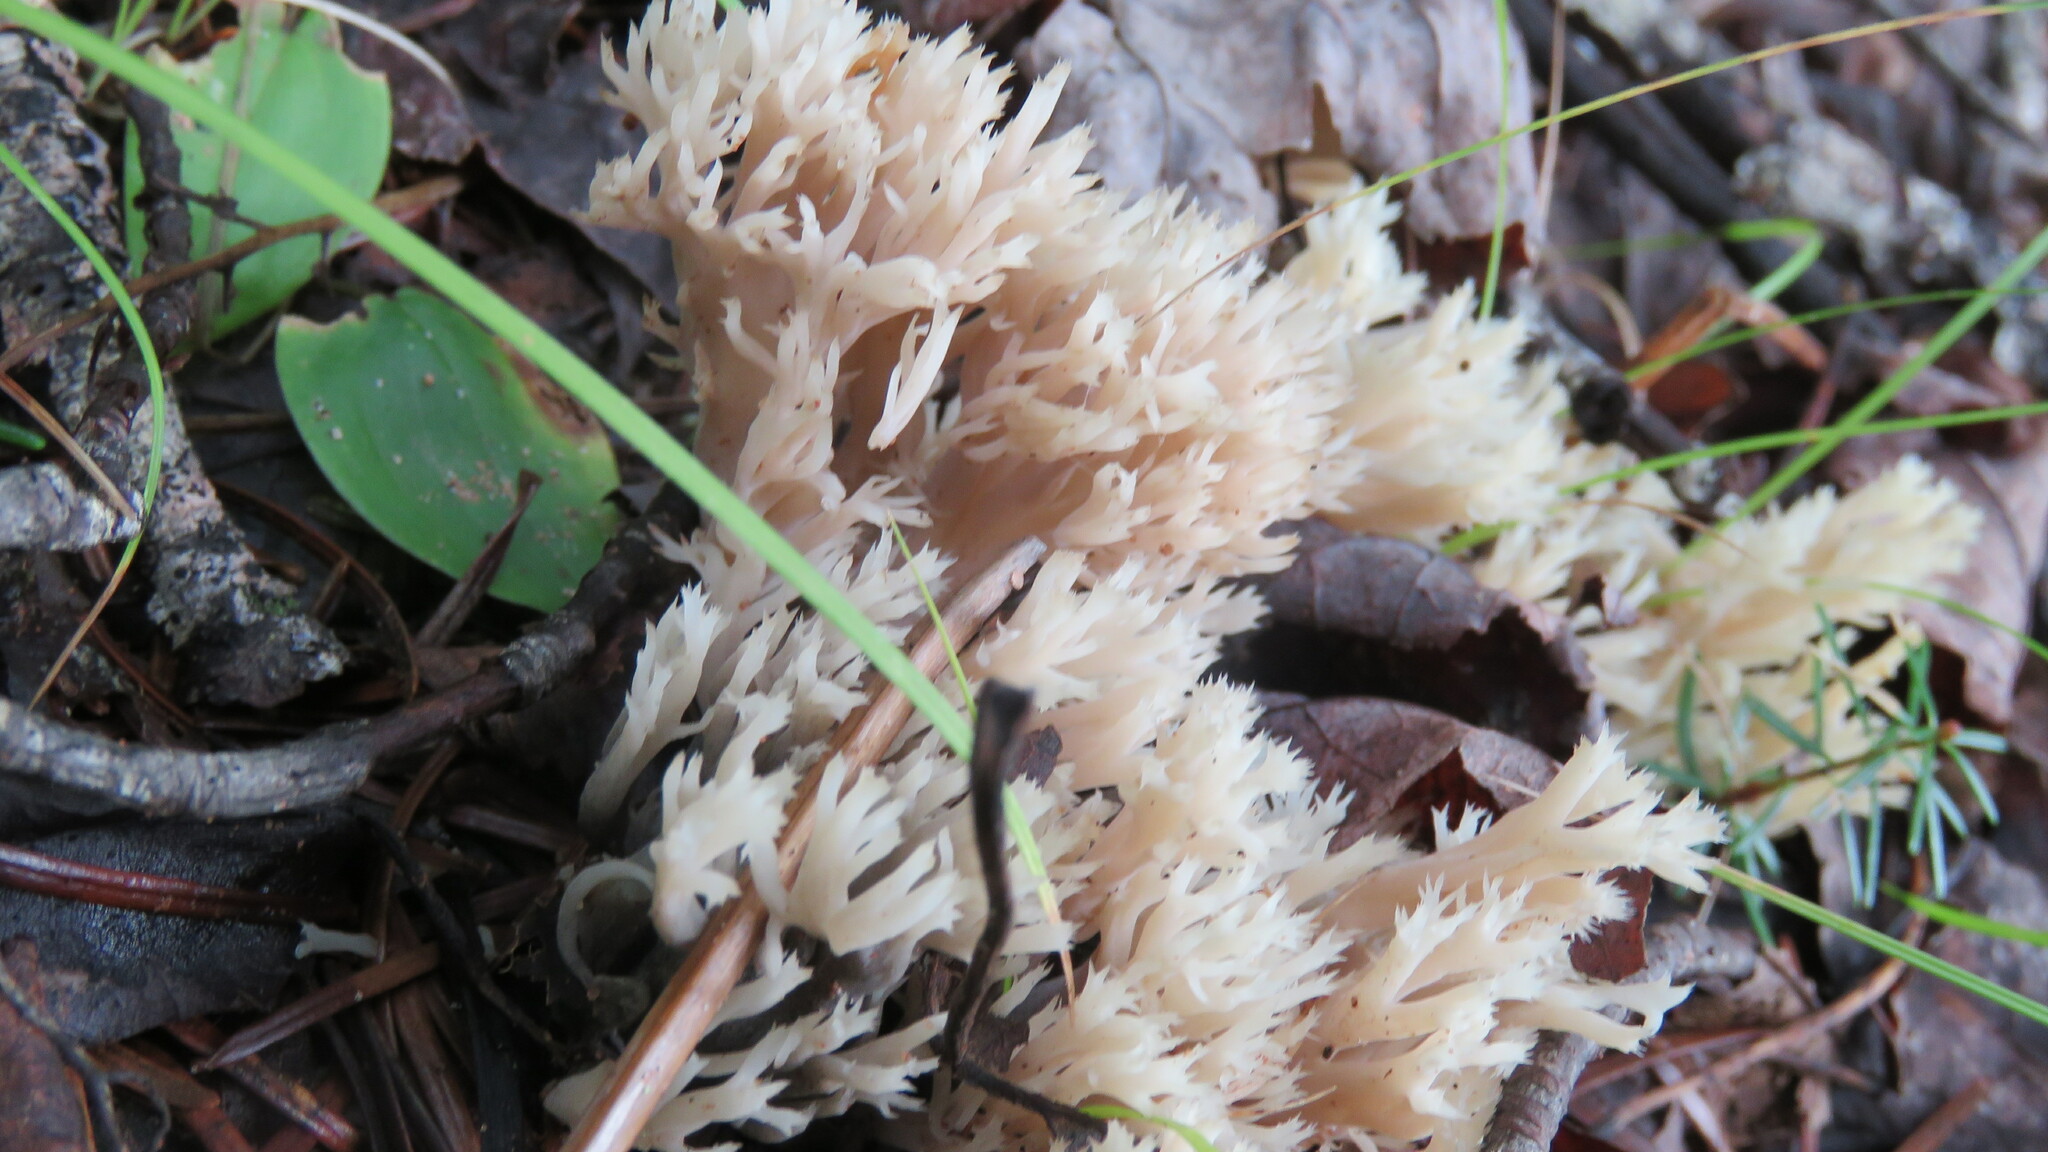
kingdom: Fungi
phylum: Basidiomycota
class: Agaricomycetes
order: Cantharellales
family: Hydnaceae
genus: Clavulina
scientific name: Clavulina coralloides
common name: Crested coral
